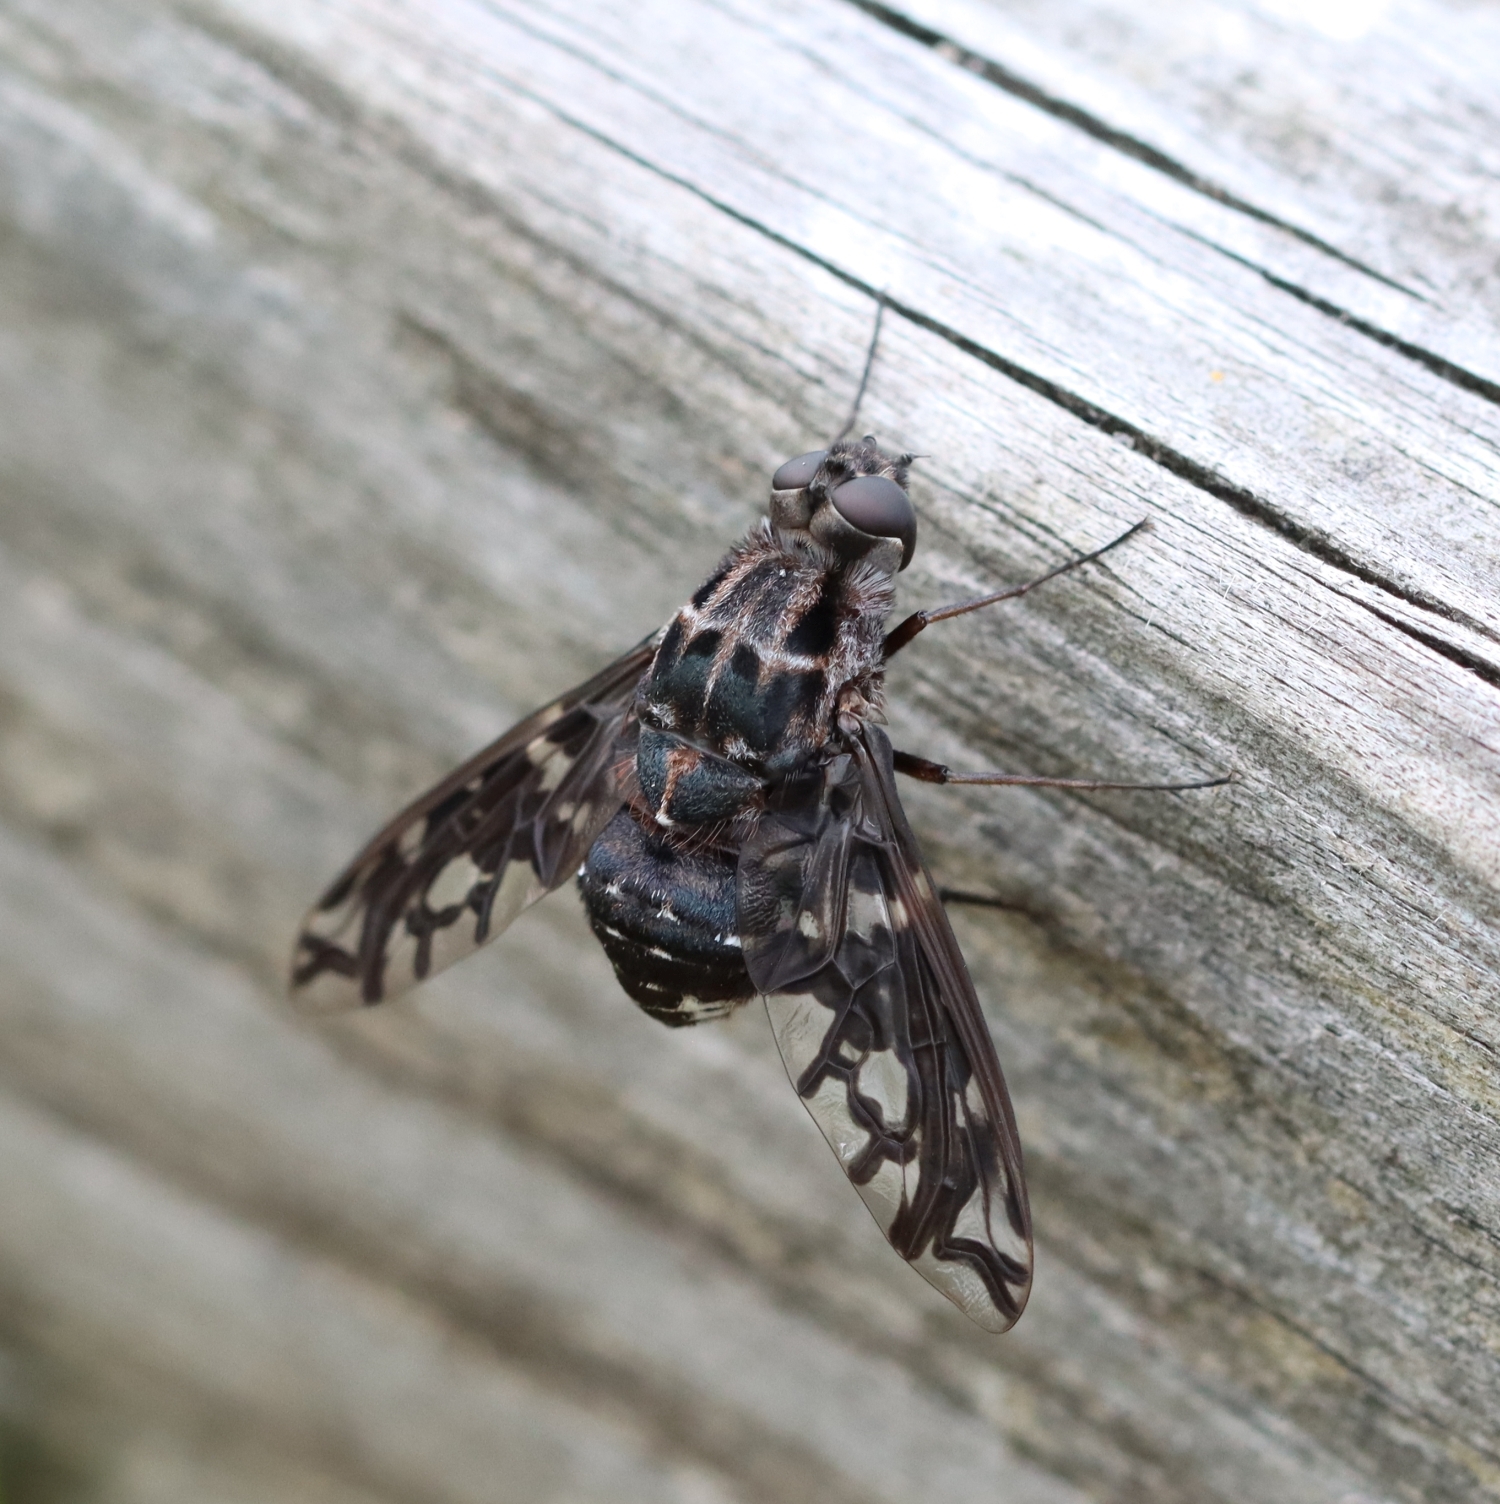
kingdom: Animalia
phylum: Arthropoda
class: Insecta
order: Diptera
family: Bombyliidae
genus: Xenox
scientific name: Xenox tigrinus
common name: Tiger bee fly
